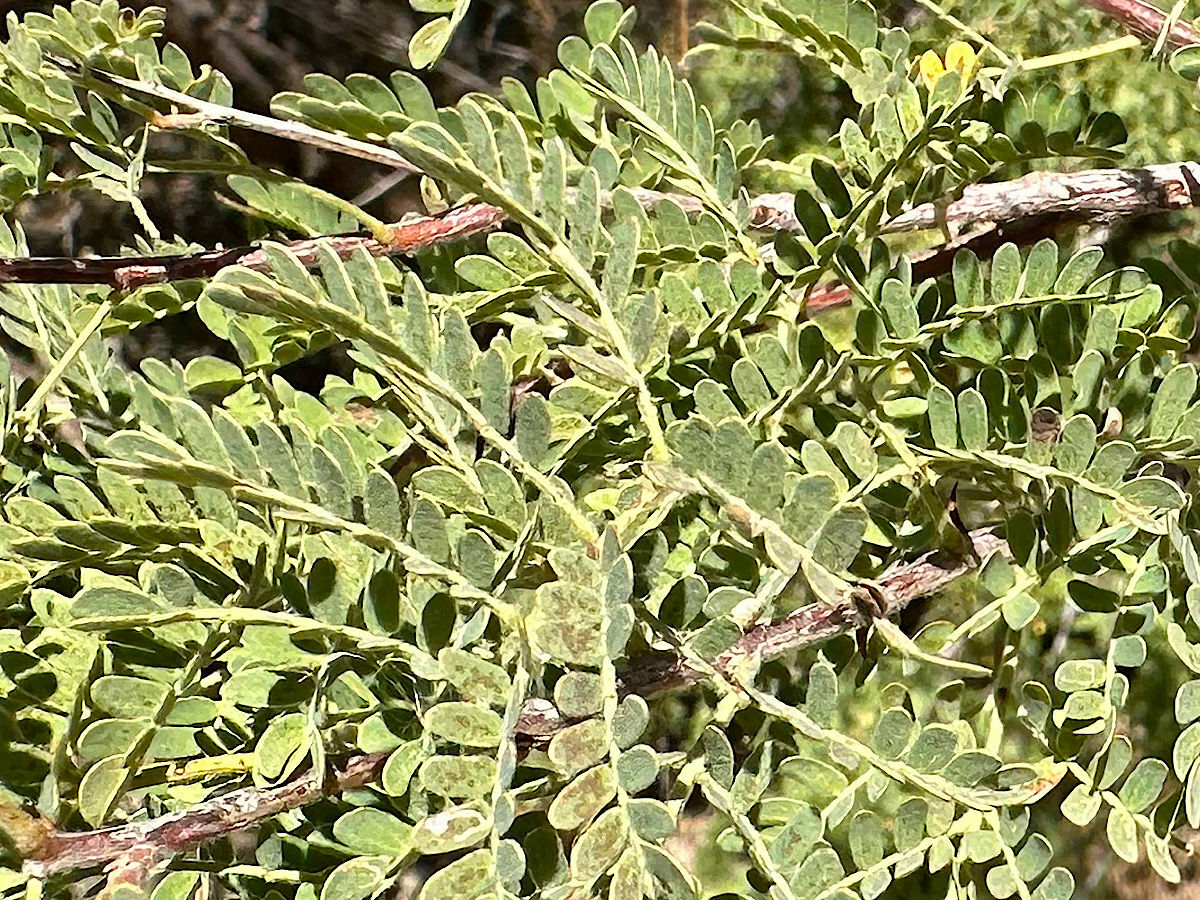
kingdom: Plantae
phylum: Tracheophyta
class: Magnoliopsida
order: Fabales
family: Fabaceae
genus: Senegalia
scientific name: Senegalia greggii
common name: Texas-mimosa
